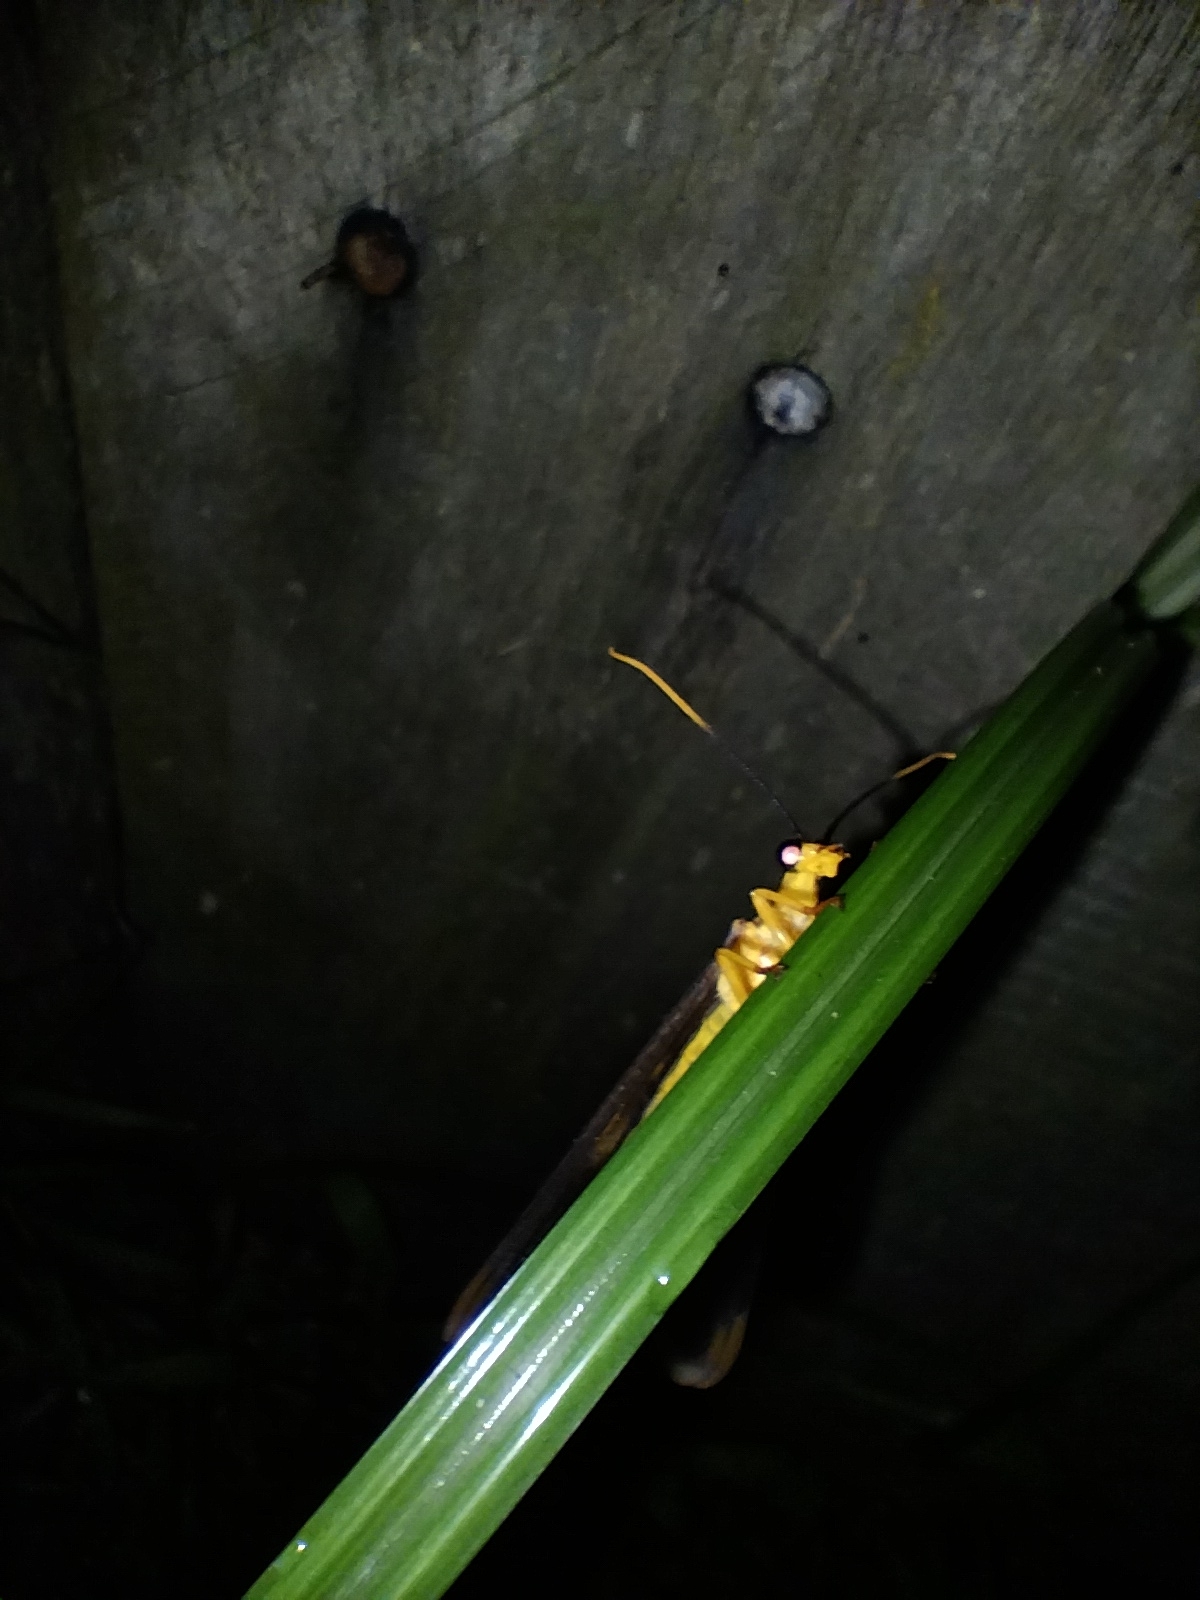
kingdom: Animalia
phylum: Arthropoda
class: Insecta
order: Neuroptera
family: Nymphidae
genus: Nymphes
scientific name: Nymphes myrmeleonoides
